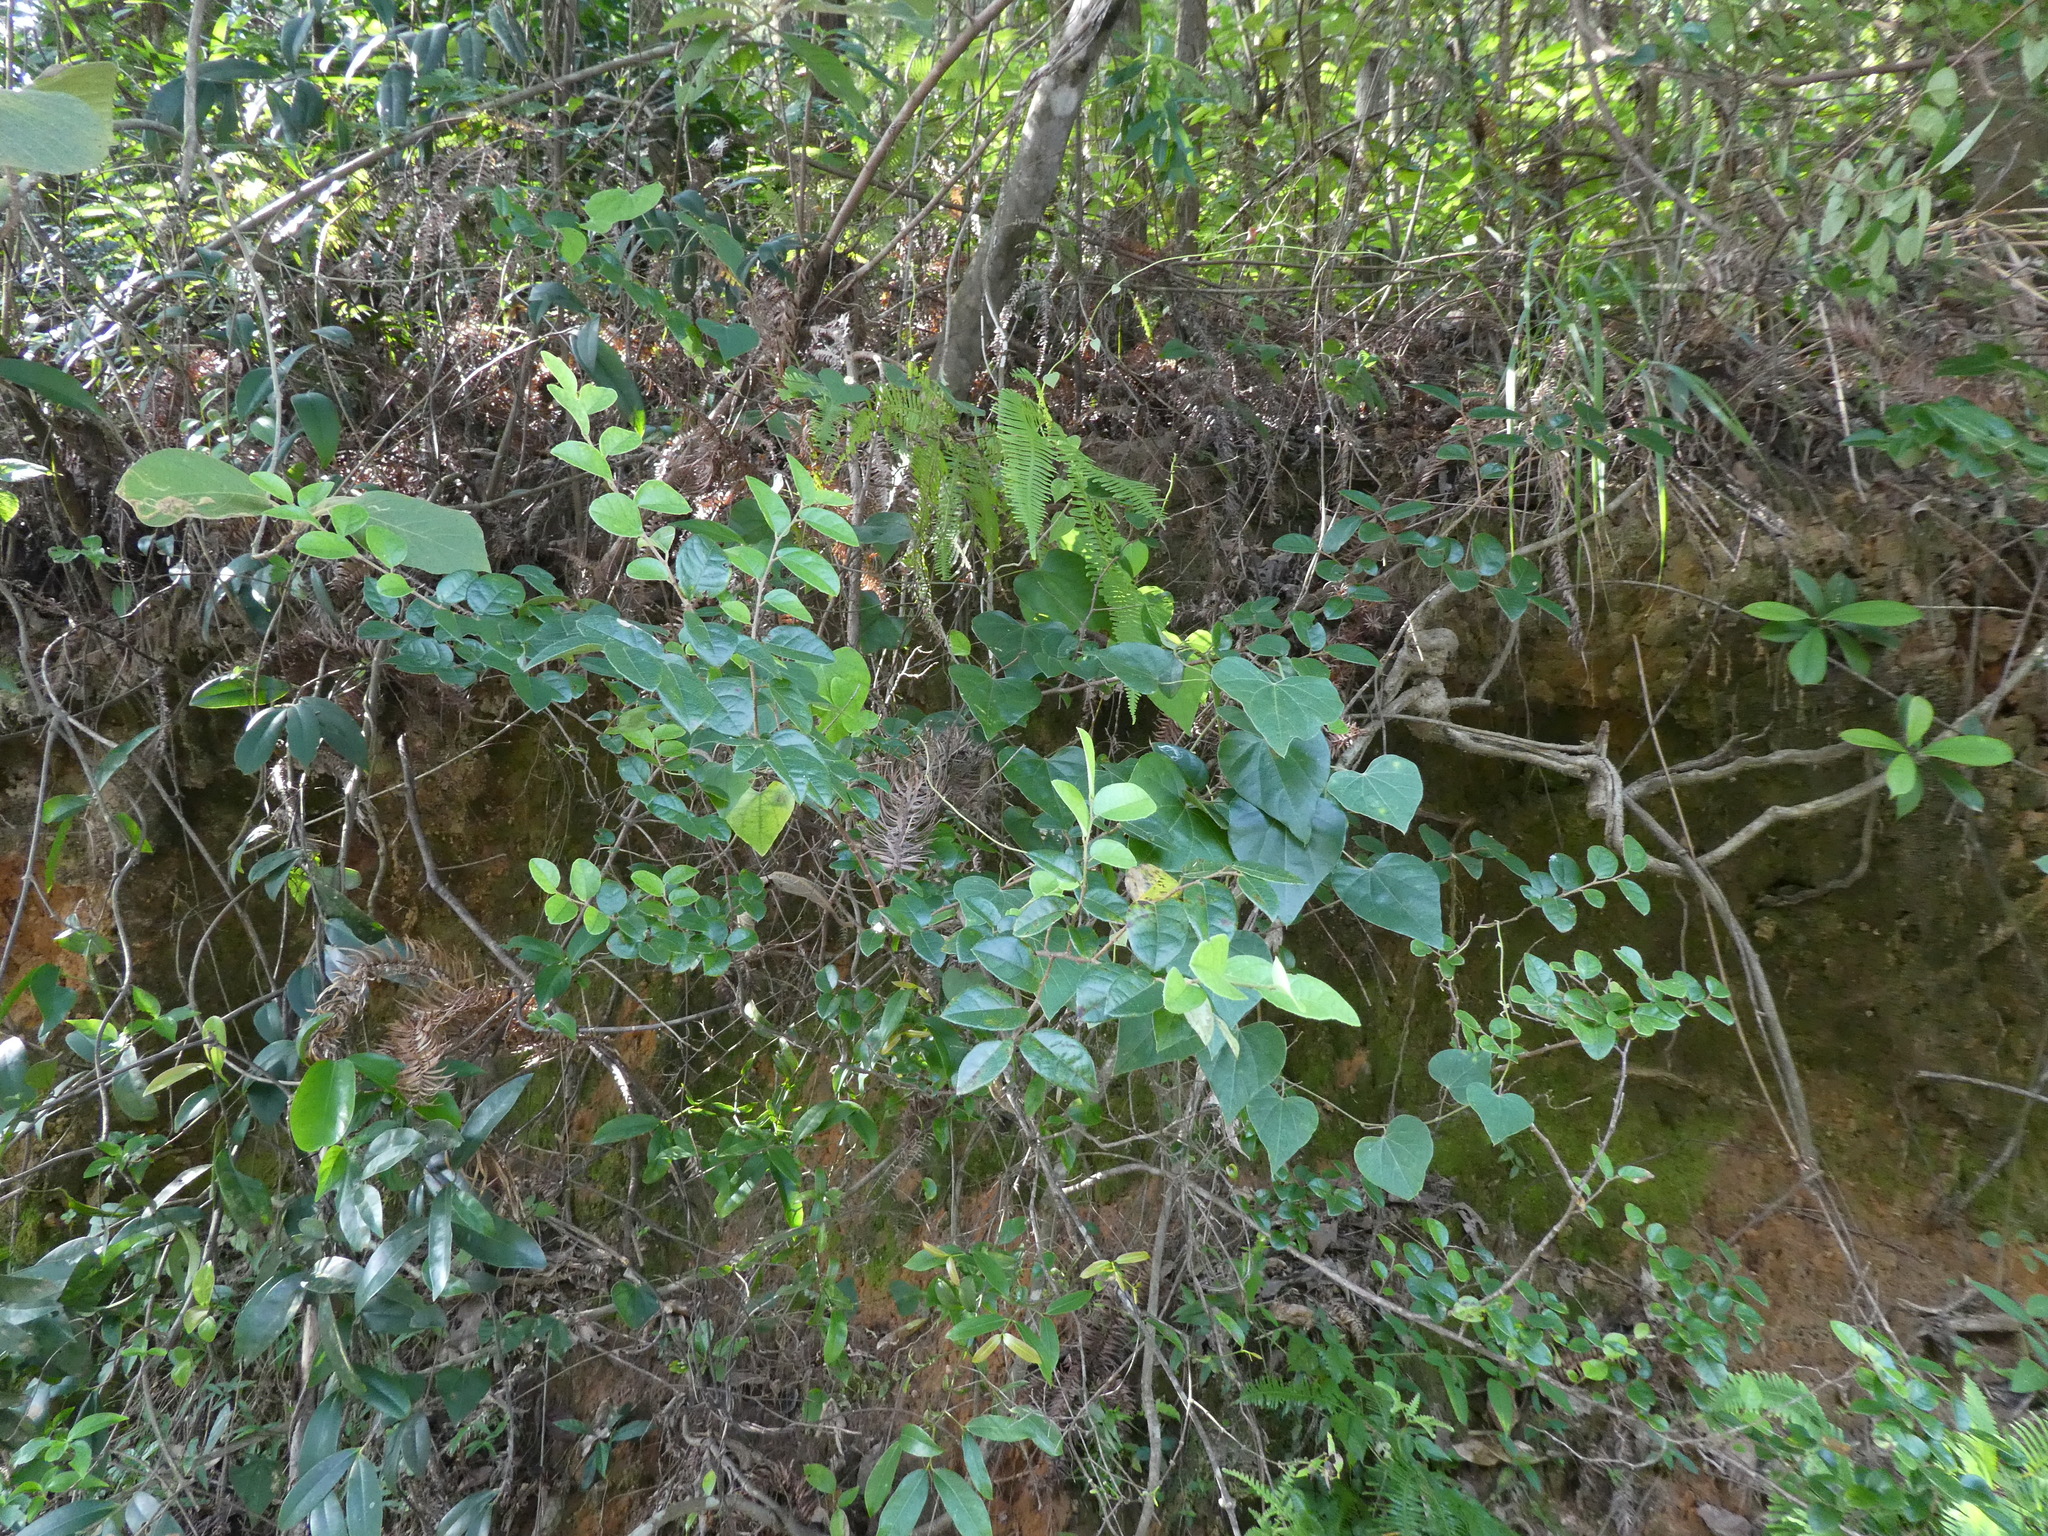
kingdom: Plantae
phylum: Tracheophyta
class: Magnoliopsida
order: Ranunculales
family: Menispermaceae
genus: Diploclisia
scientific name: Diploclisia affinis
